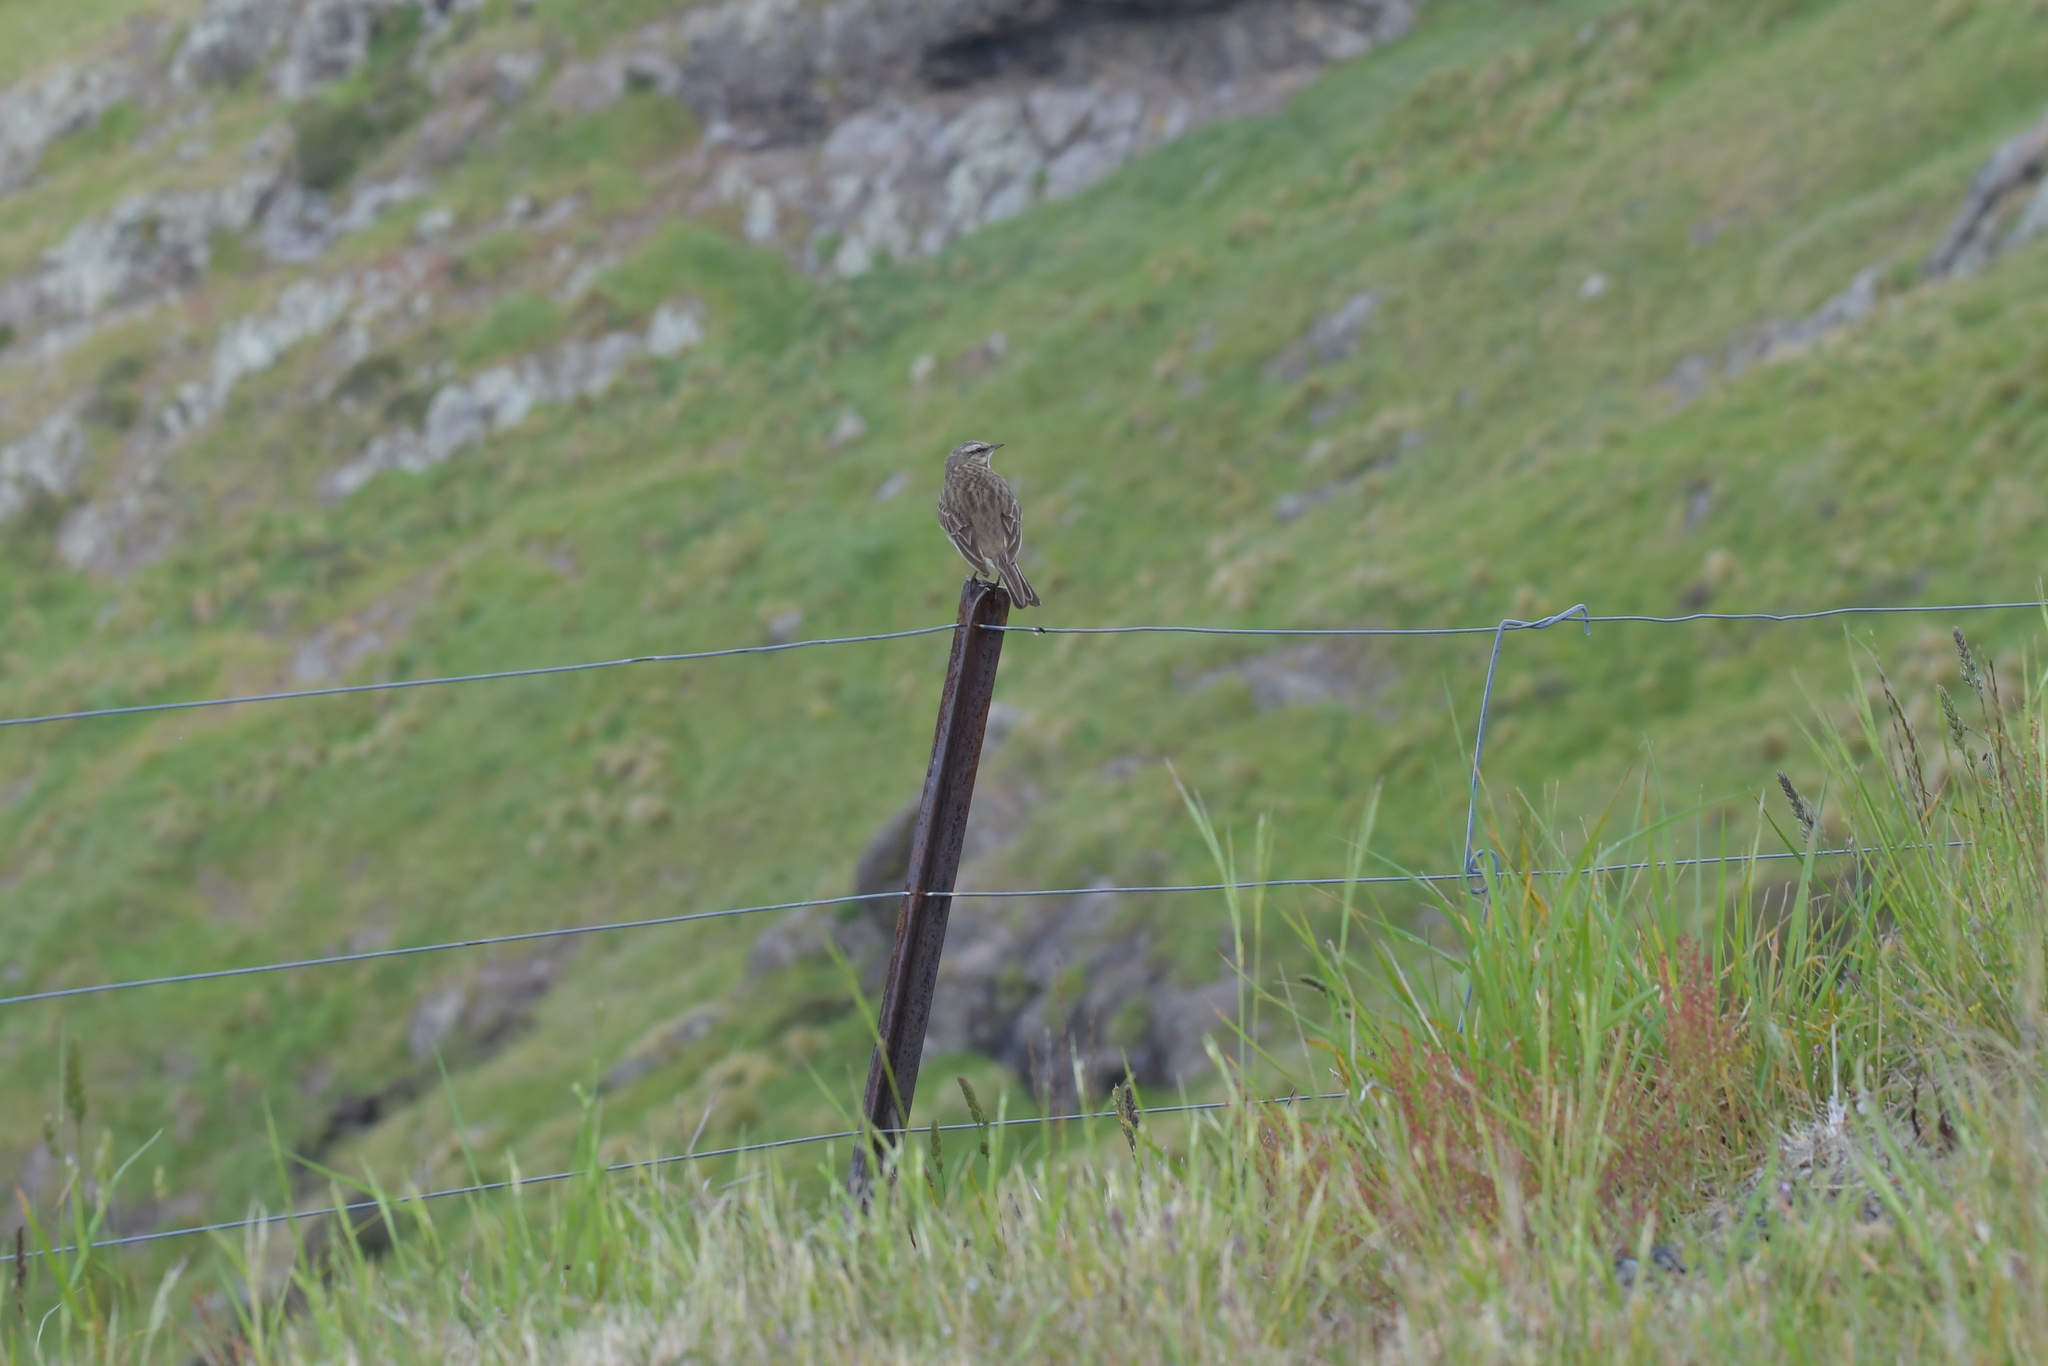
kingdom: Animalia
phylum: Chordata
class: Aves
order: Passeriformes
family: Motacillidae
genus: Anthus
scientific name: Anthus novaeseelandiae
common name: New zealand pipit
